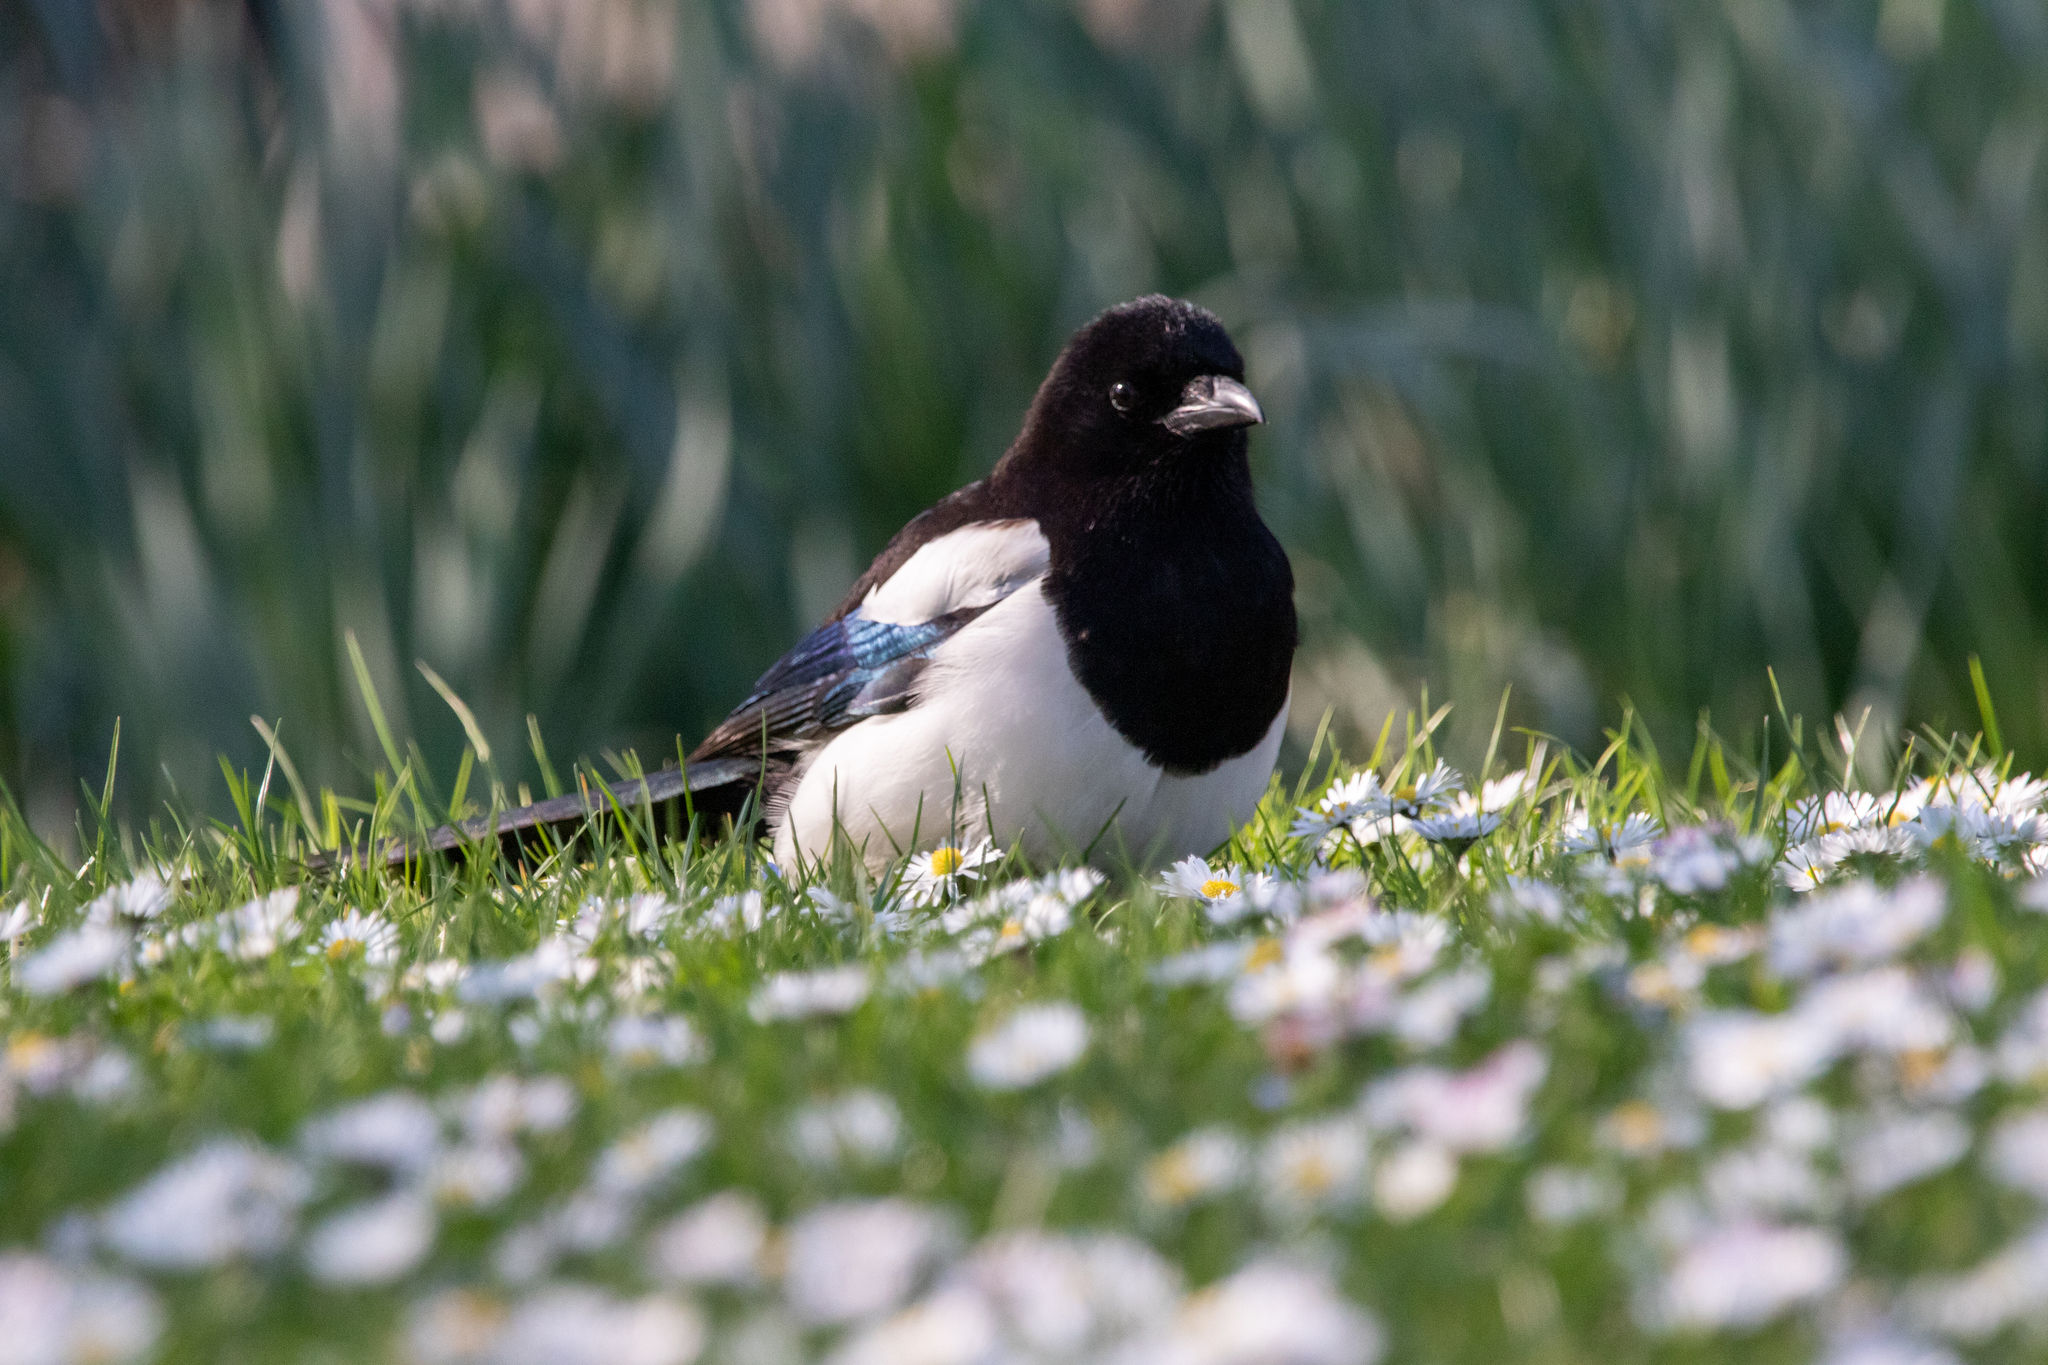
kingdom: Animalia
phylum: Chordata
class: Aves
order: Passeriformes
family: Corvidae
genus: Pica
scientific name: Pica pica
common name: Eurasian magpie
